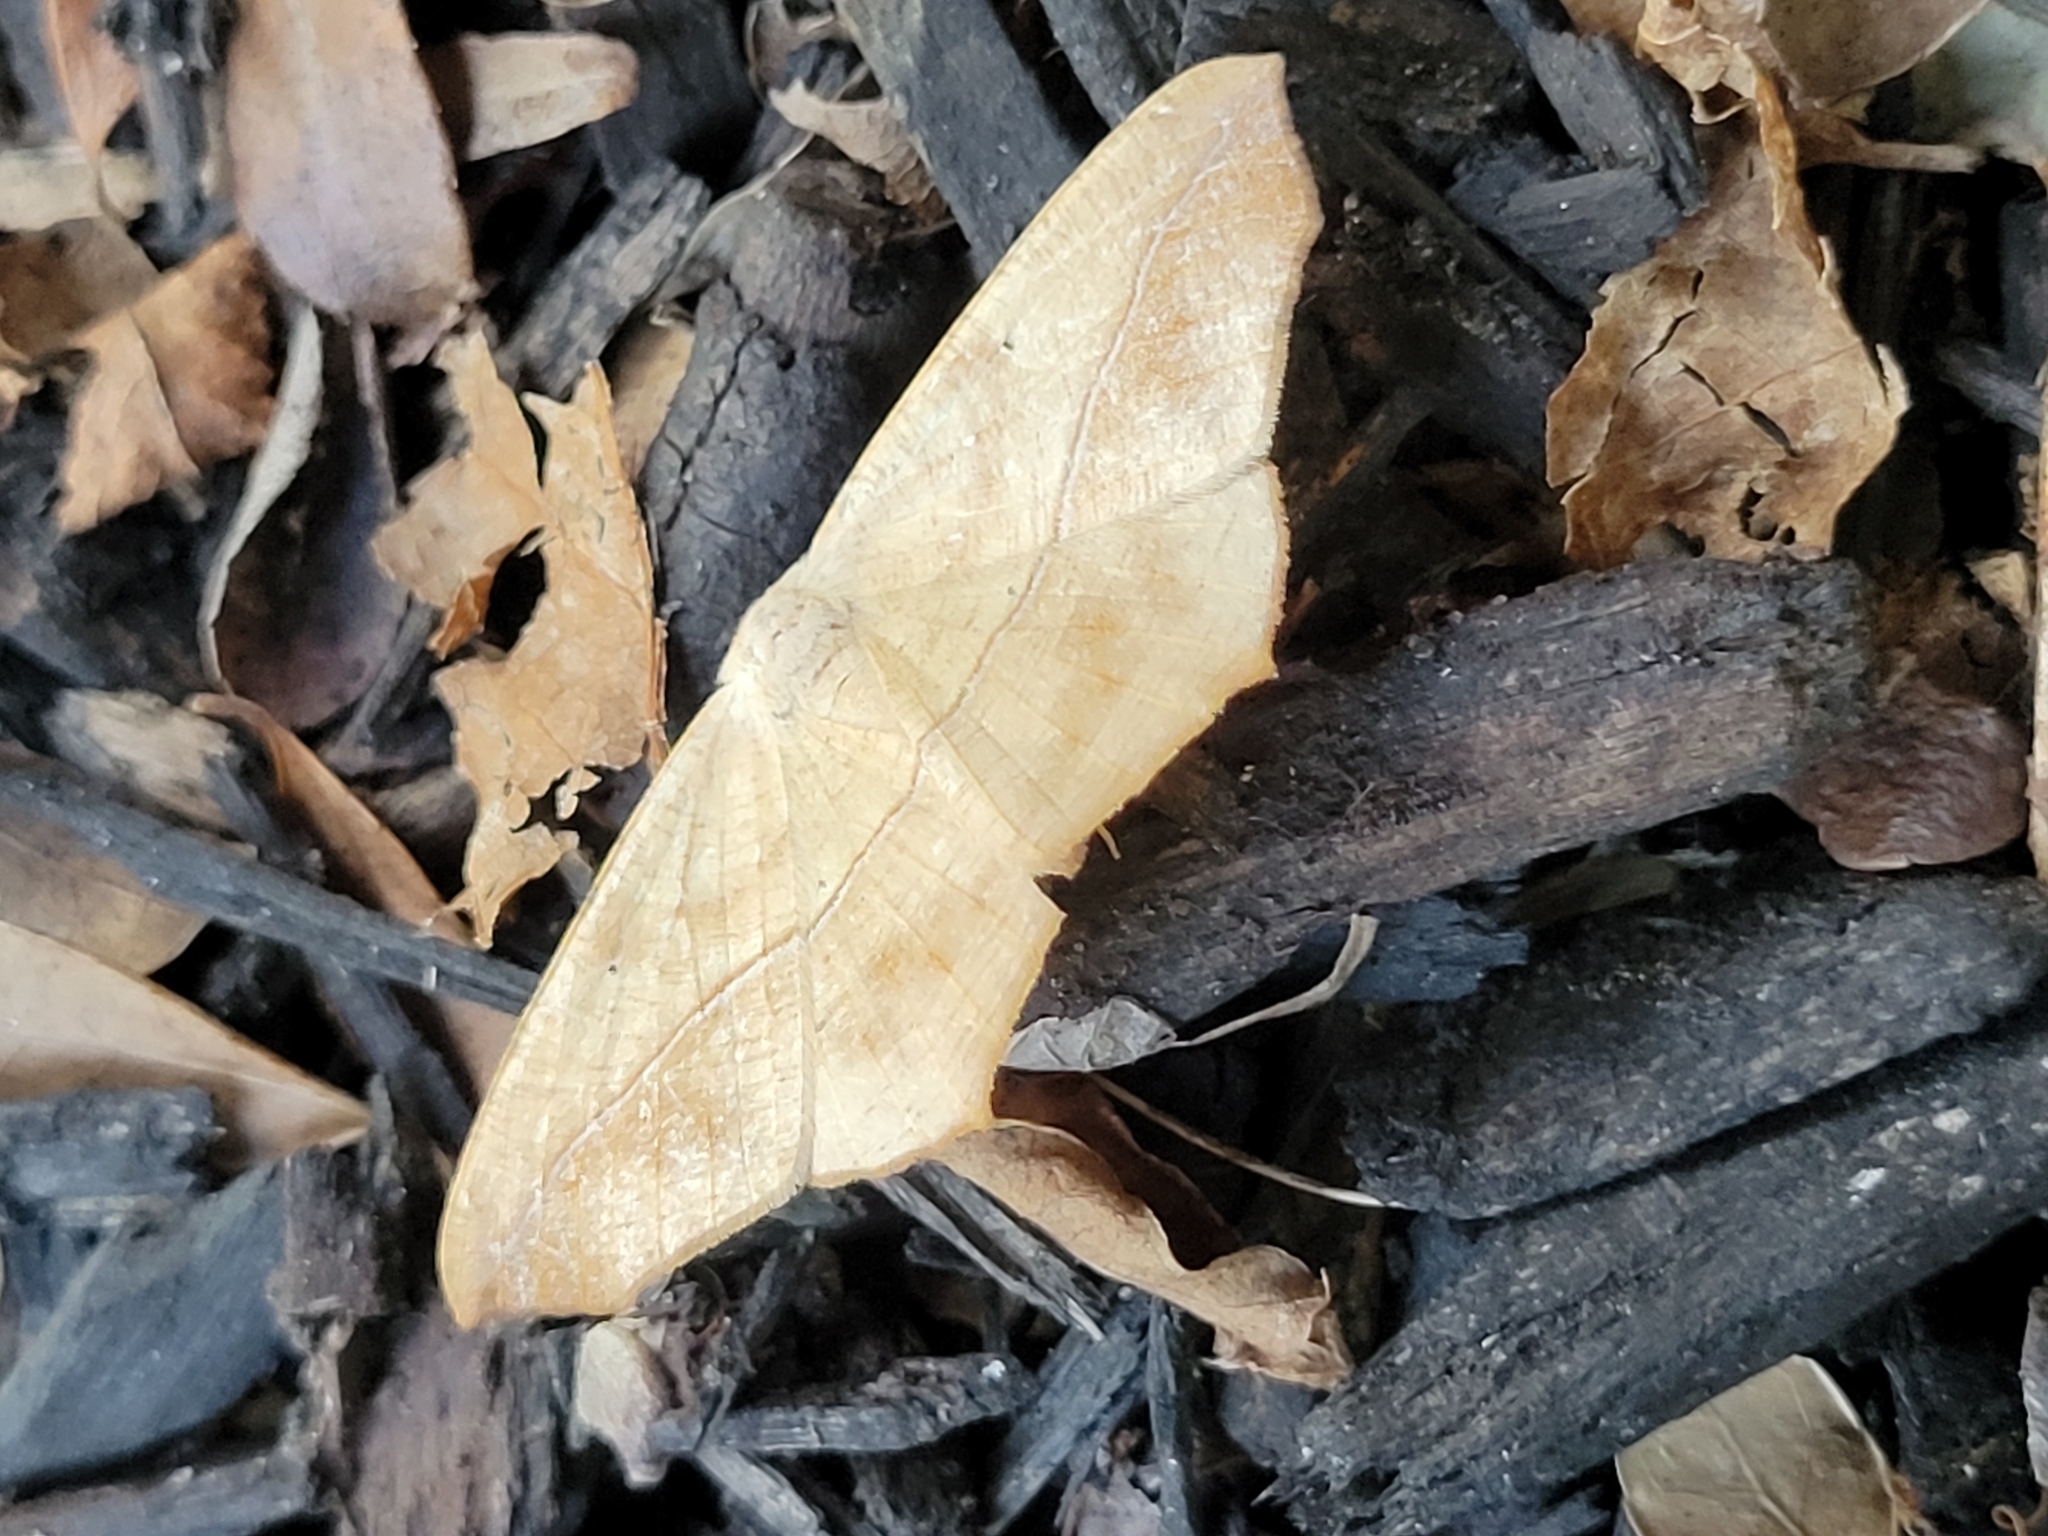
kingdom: Animalia
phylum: Arthropoda
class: Insecta
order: Lepidoptera
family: Geometridae
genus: Prochoerodes
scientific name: Prochoerodes lineola
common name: Large maple spanworm
